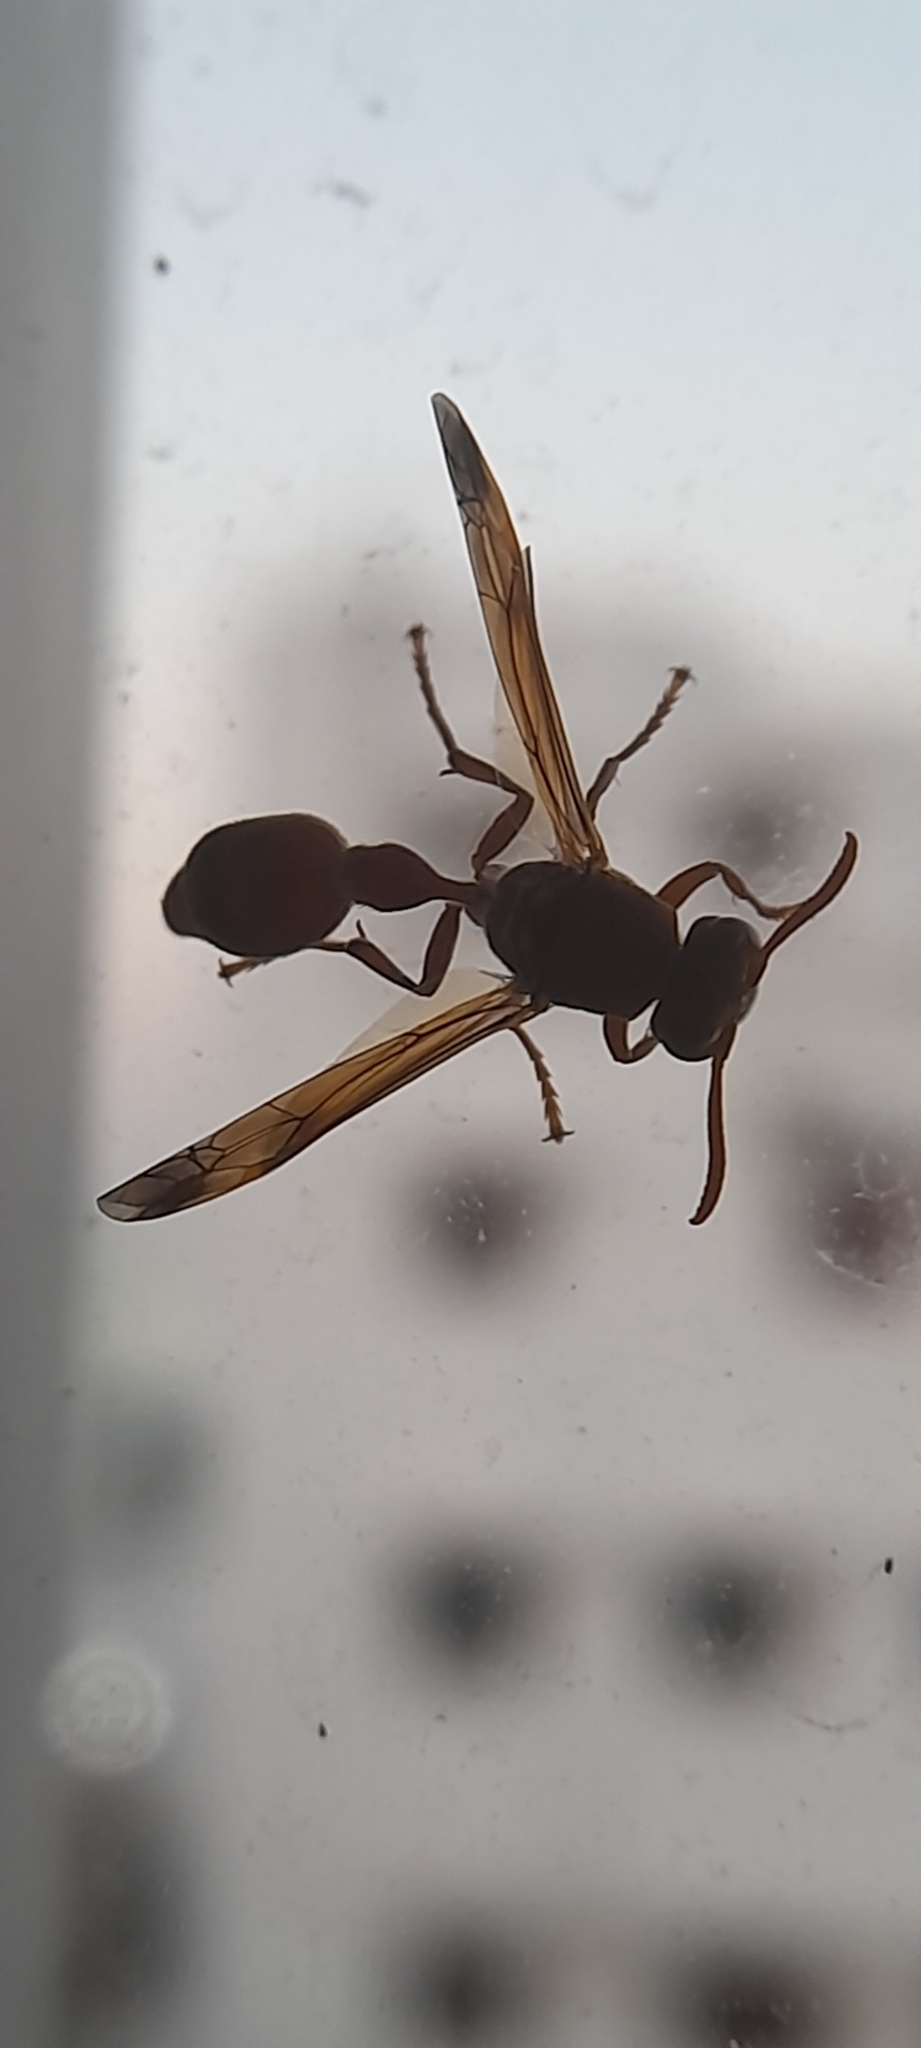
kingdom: Animalia
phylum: Arthropoda
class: Insecta
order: Hymenoptera
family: Vespidae
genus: Ropalidia
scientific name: Ropalidia
